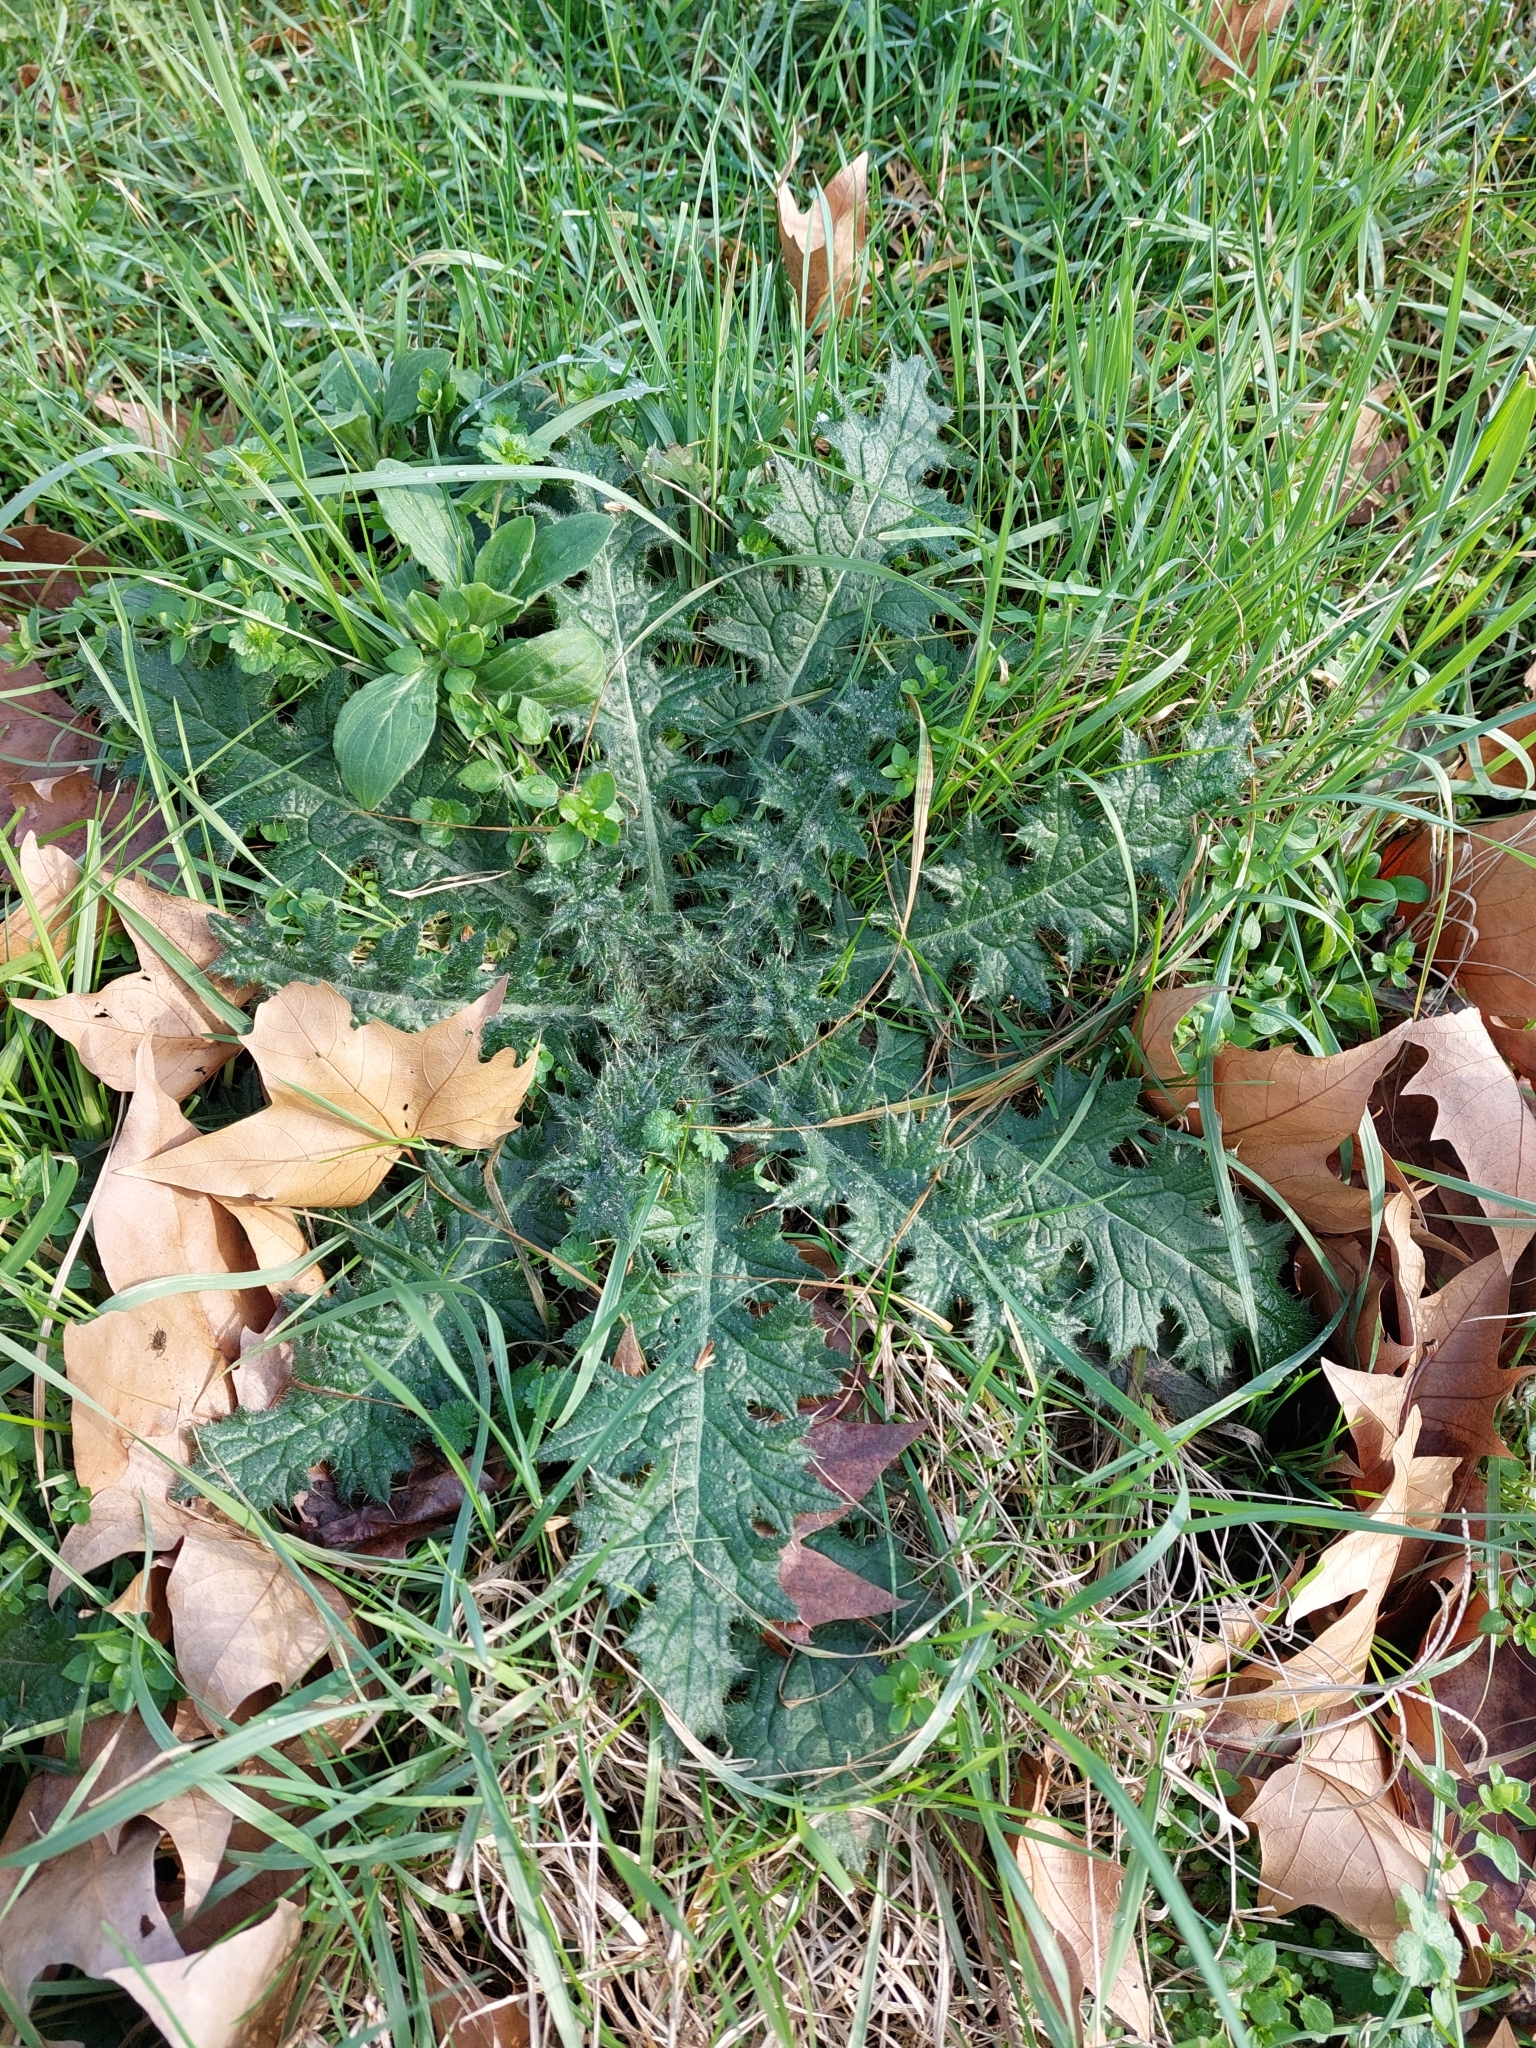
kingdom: Plantae
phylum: Tracheophyta
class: Magnoliopsida
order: Asterales
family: Asteraceae
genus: Cirsium
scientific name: Cirsium vulgare
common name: Bull thistle
